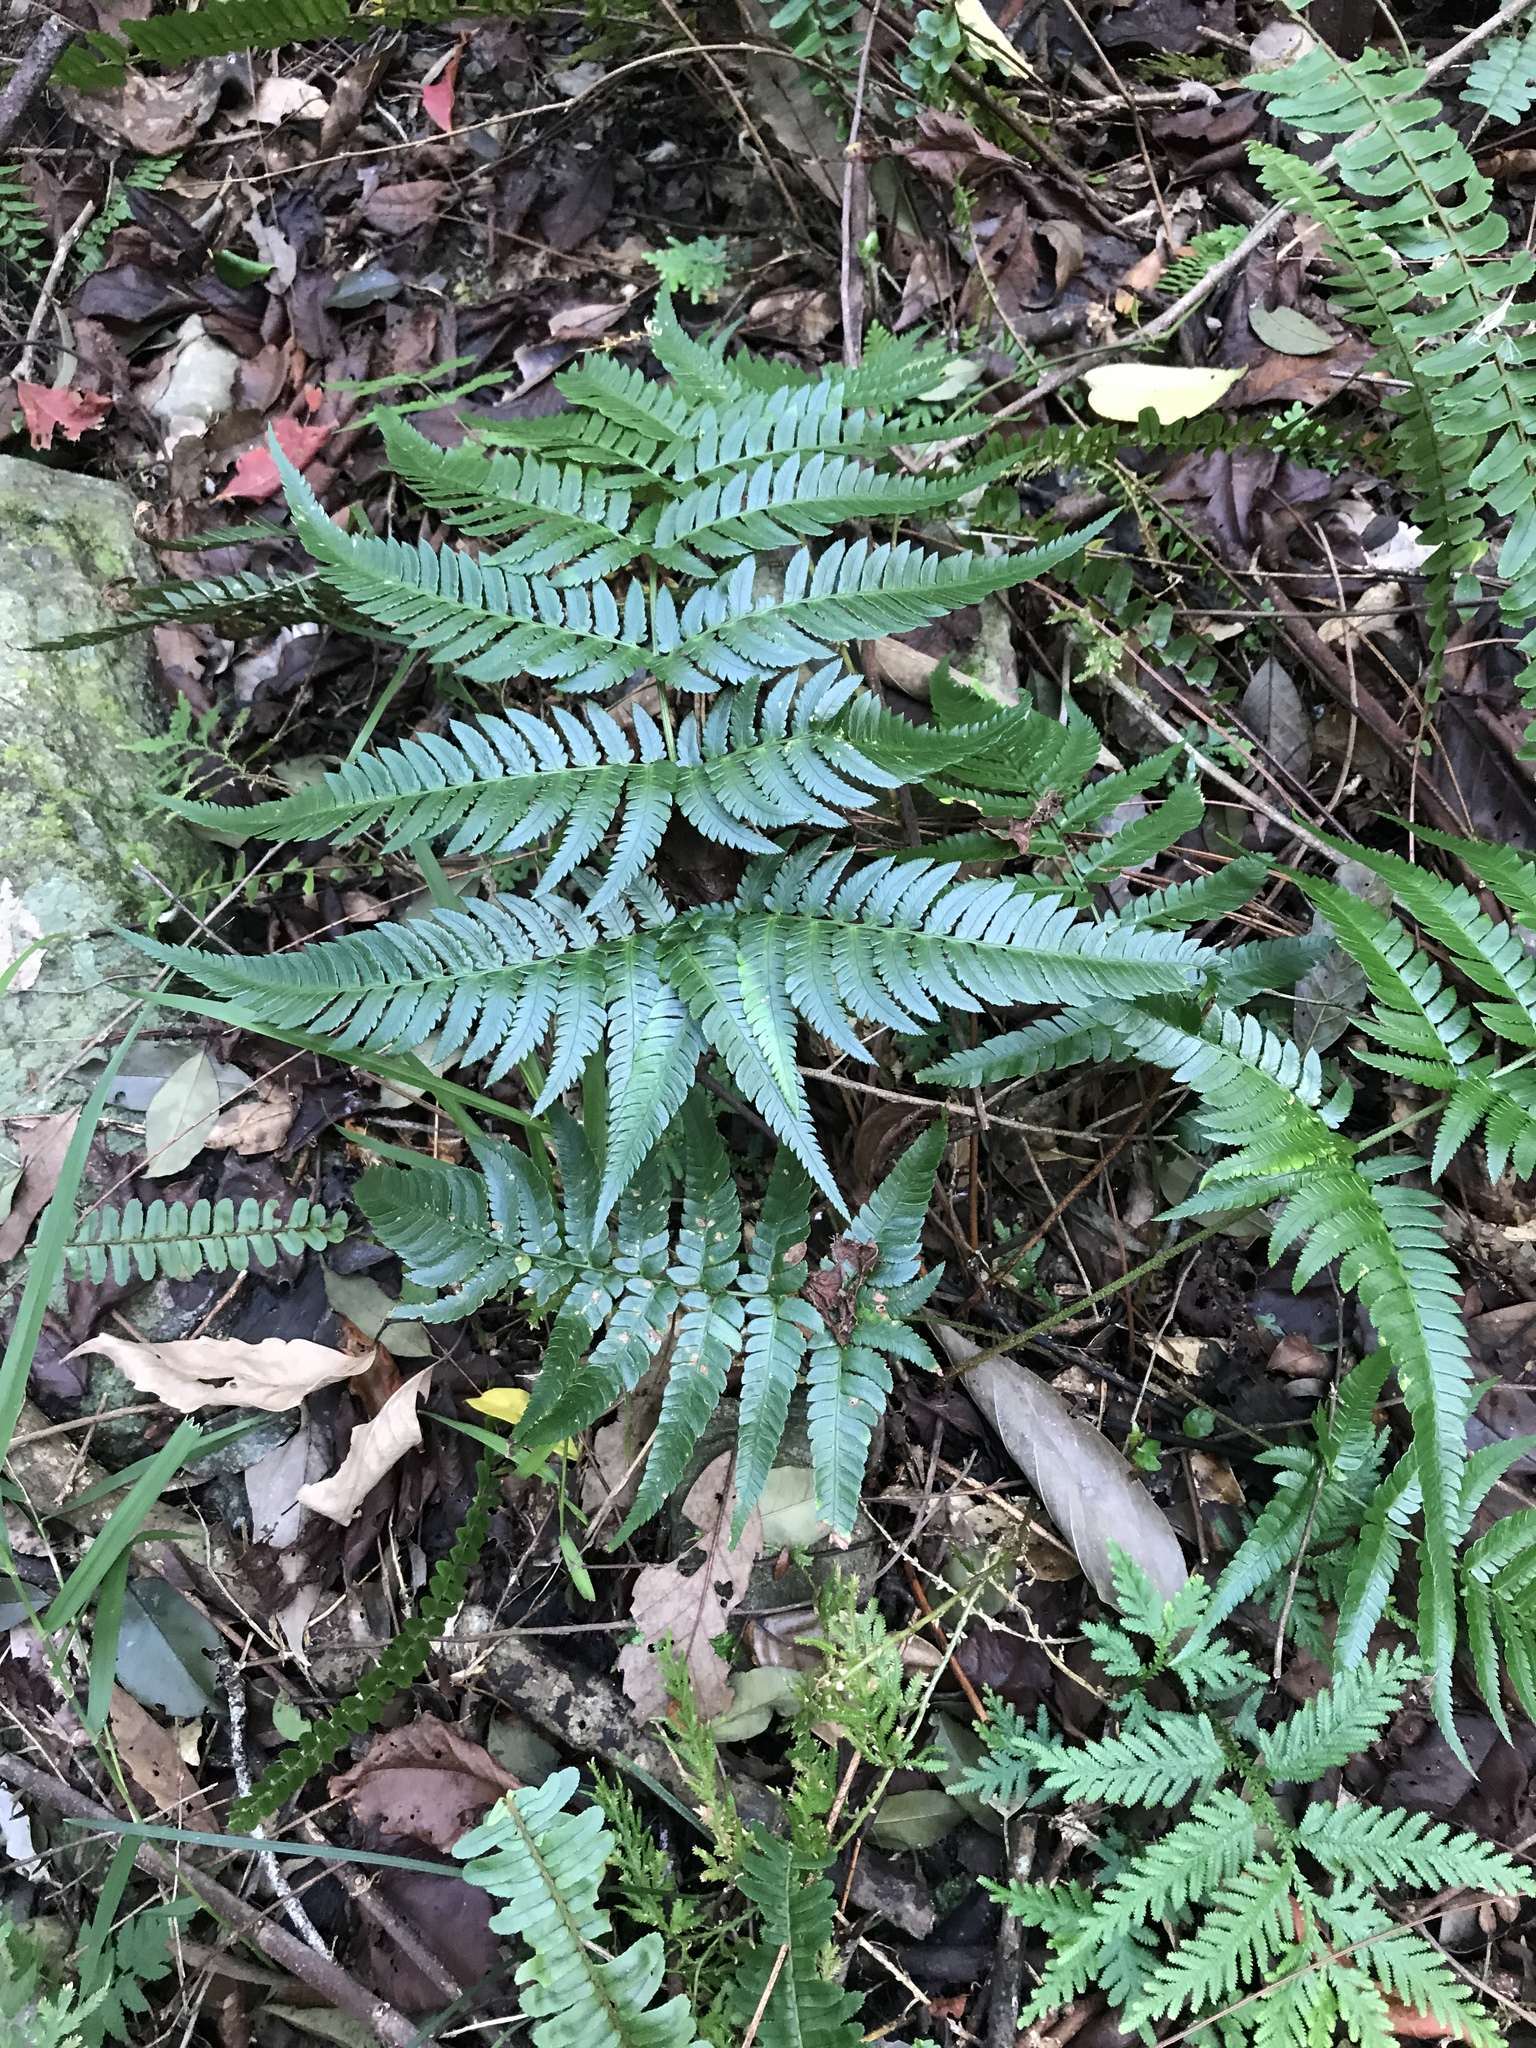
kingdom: Plantae
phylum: Tracheophyta
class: Polypodiopsida
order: Polypodiales
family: Dryopteridaceae
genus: Dryopteris
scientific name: Dryopteris varia
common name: Japanese holly fern
